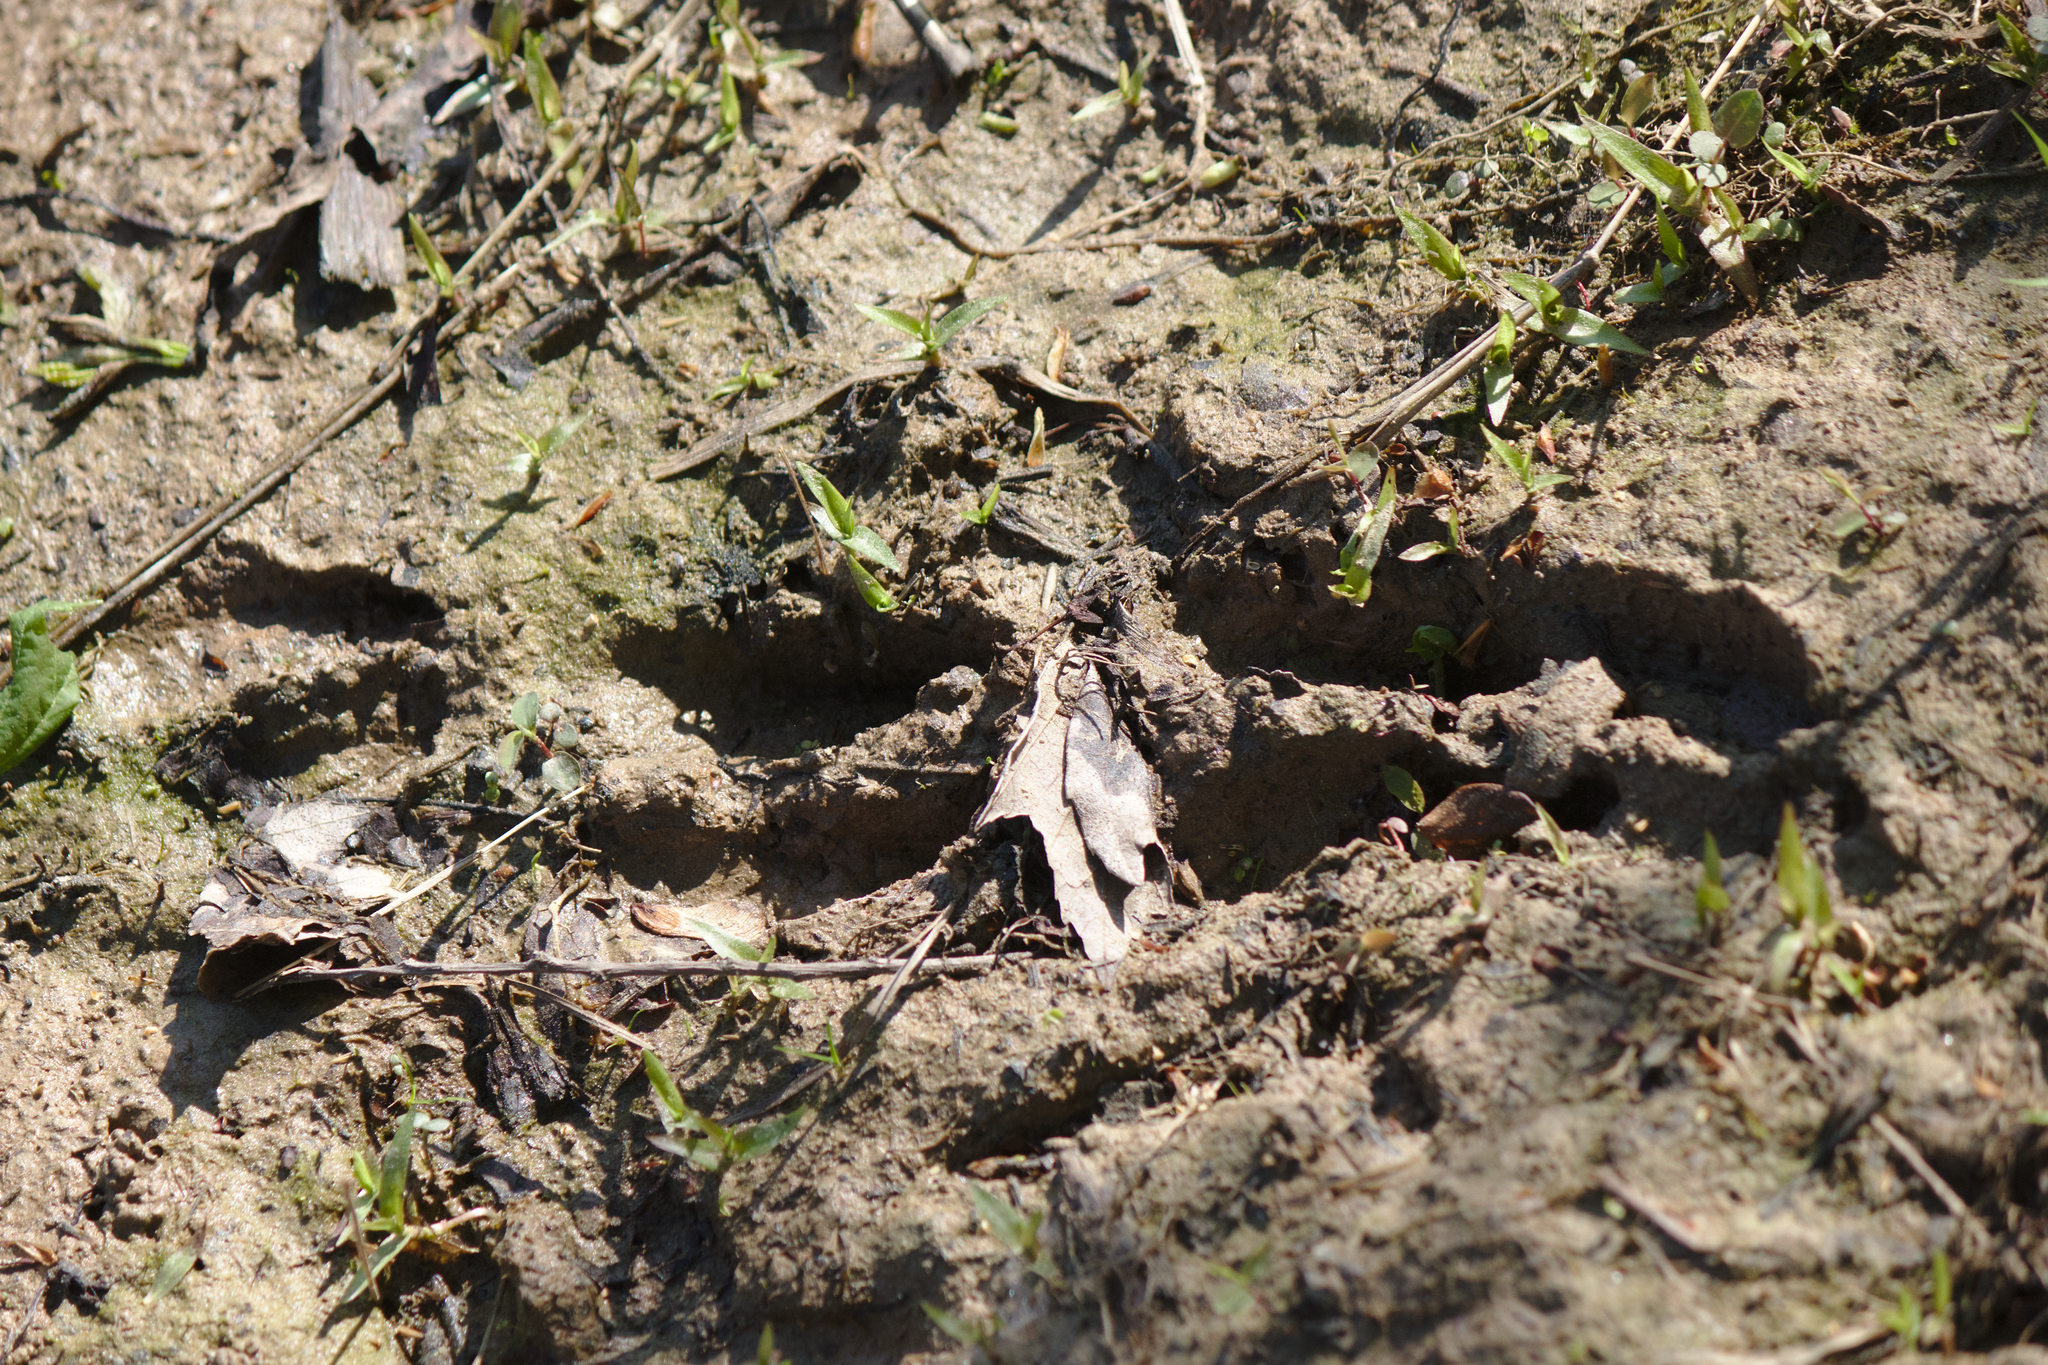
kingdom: Animalia
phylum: Chordata
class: Mammalia
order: Artiodactyla
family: Cervidae
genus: Odocoileus
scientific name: Odocoileus virginianus
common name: White-tailed deer
